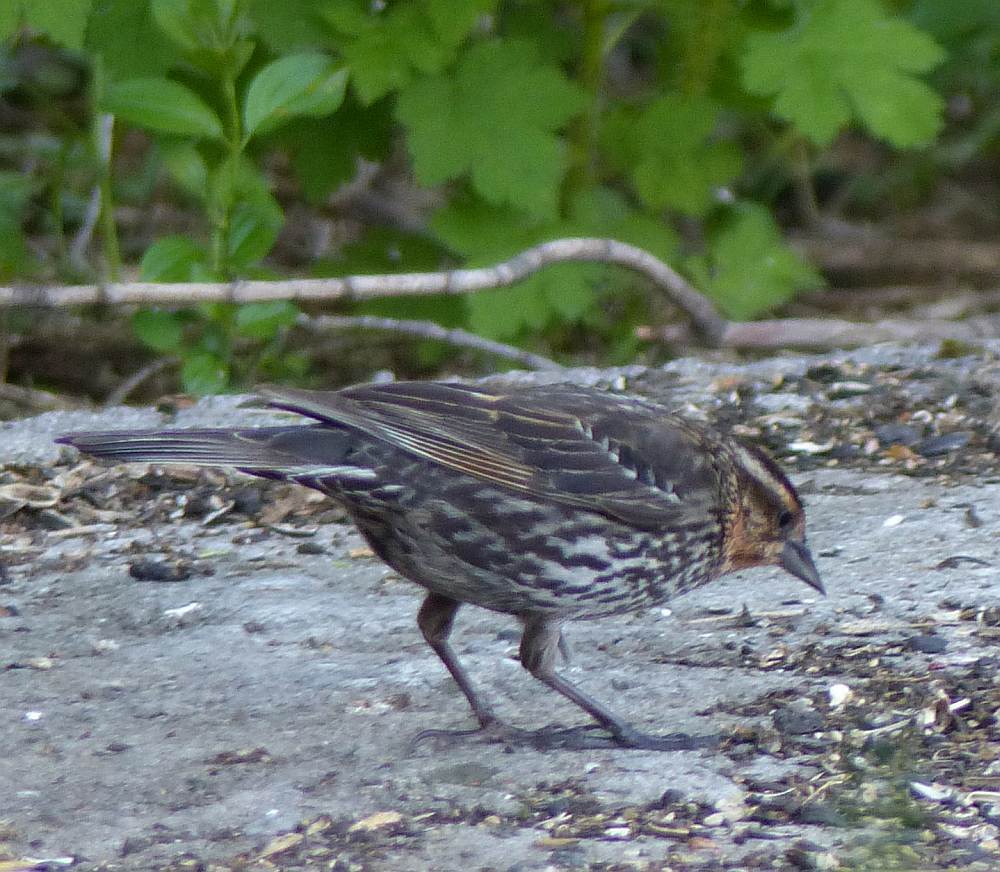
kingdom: Animalia
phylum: Chordata
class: Aves
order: Passeriformes
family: Icteridae
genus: Agelaius
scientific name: Agelaius phoeniceus
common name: Red-winged blackbird
